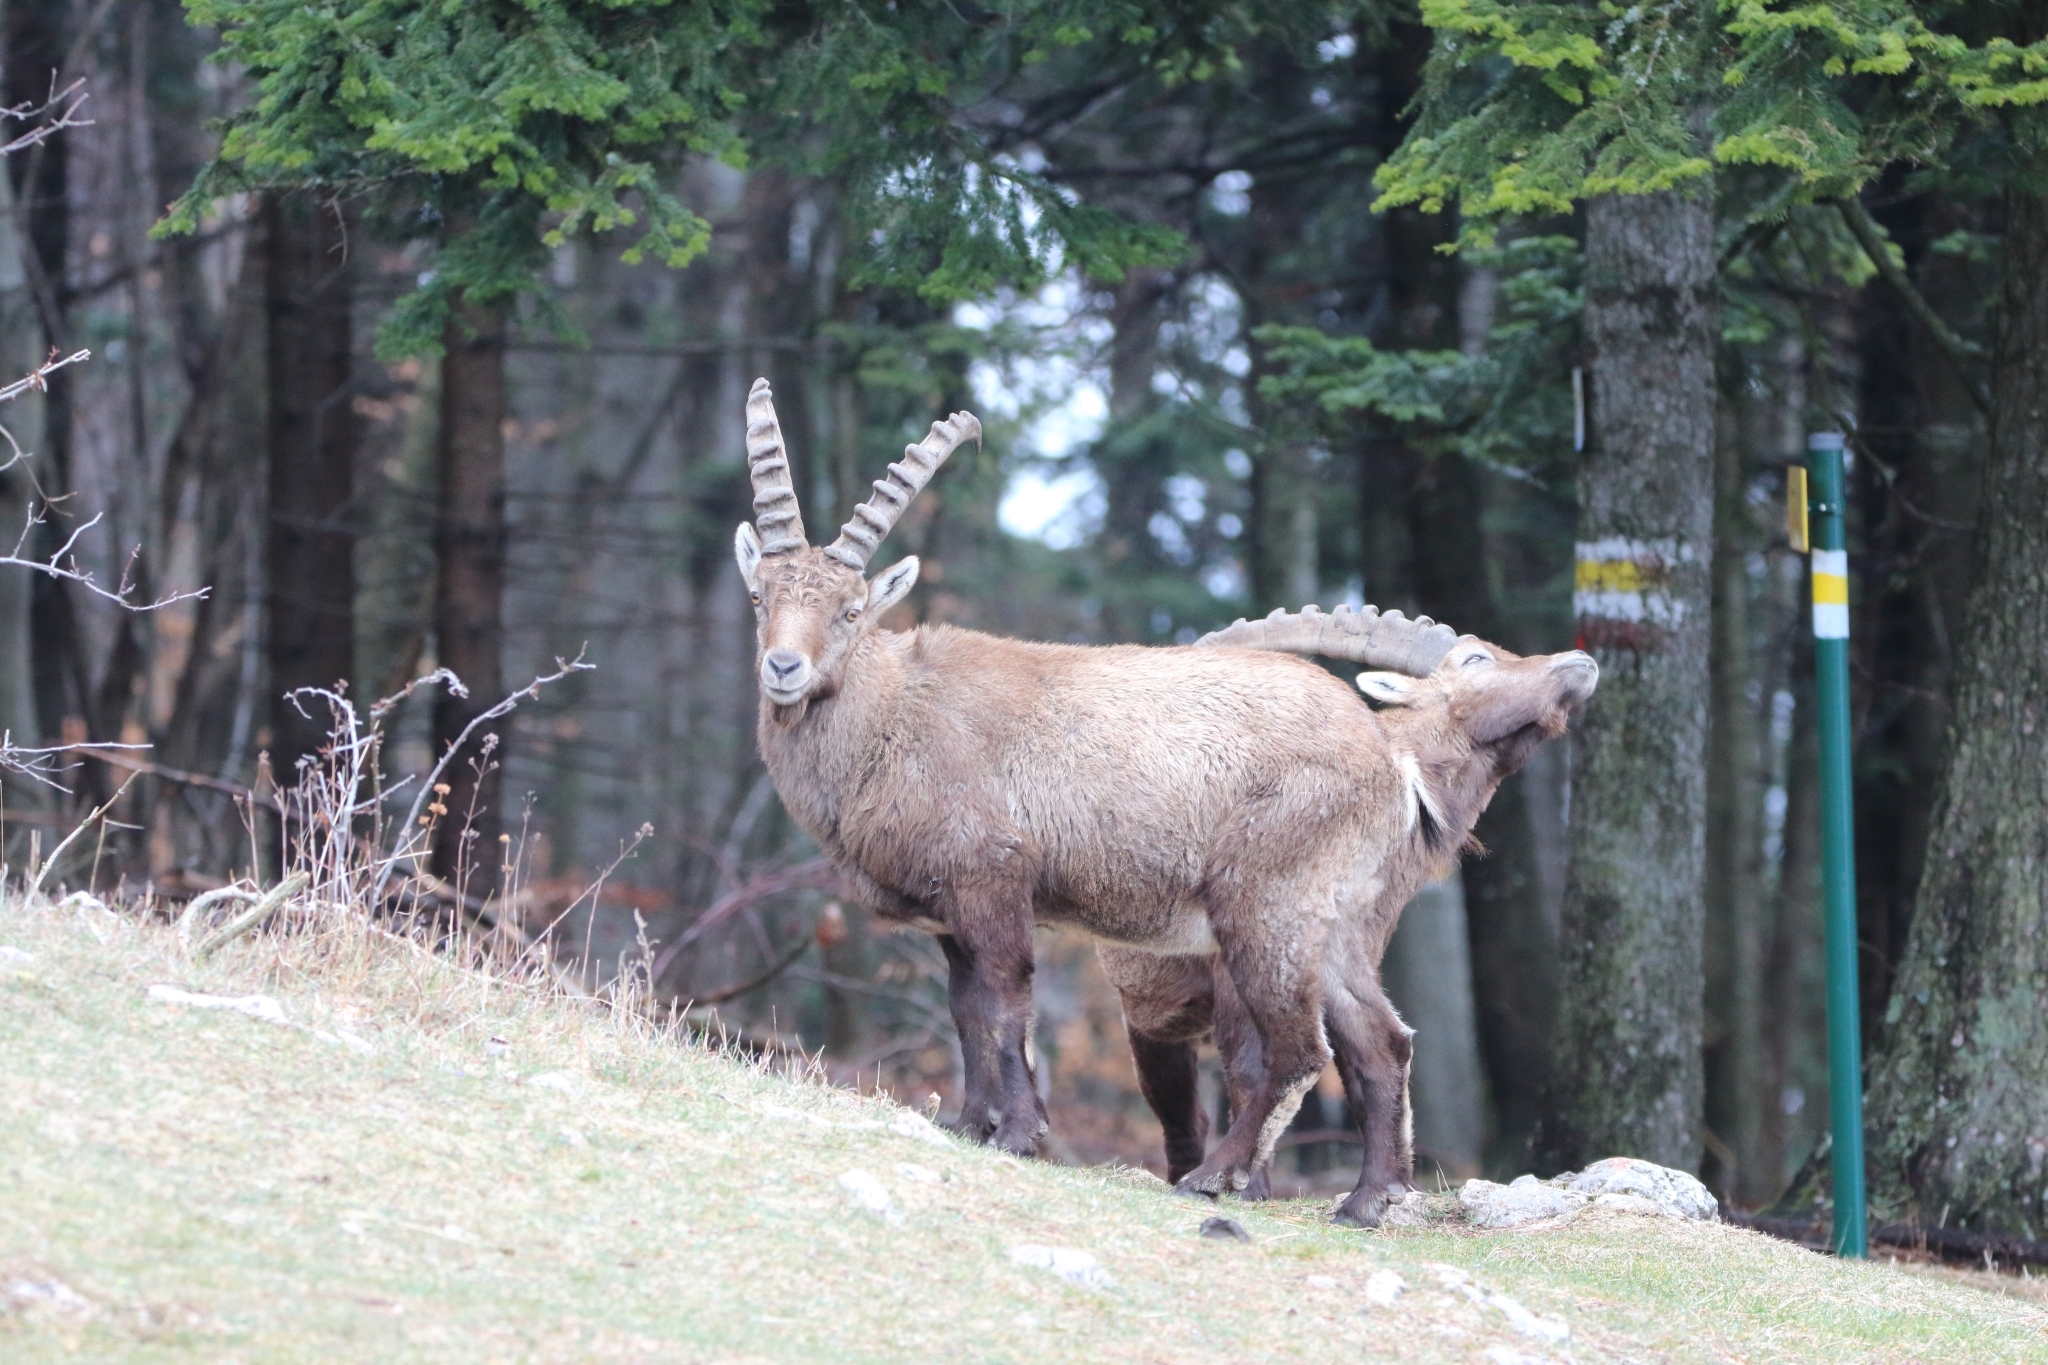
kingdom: Animalia
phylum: Chordata
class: Mammalia
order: Artiodactyla
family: Bovidae
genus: Capra
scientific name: Capra ibex
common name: Alpine ibex
